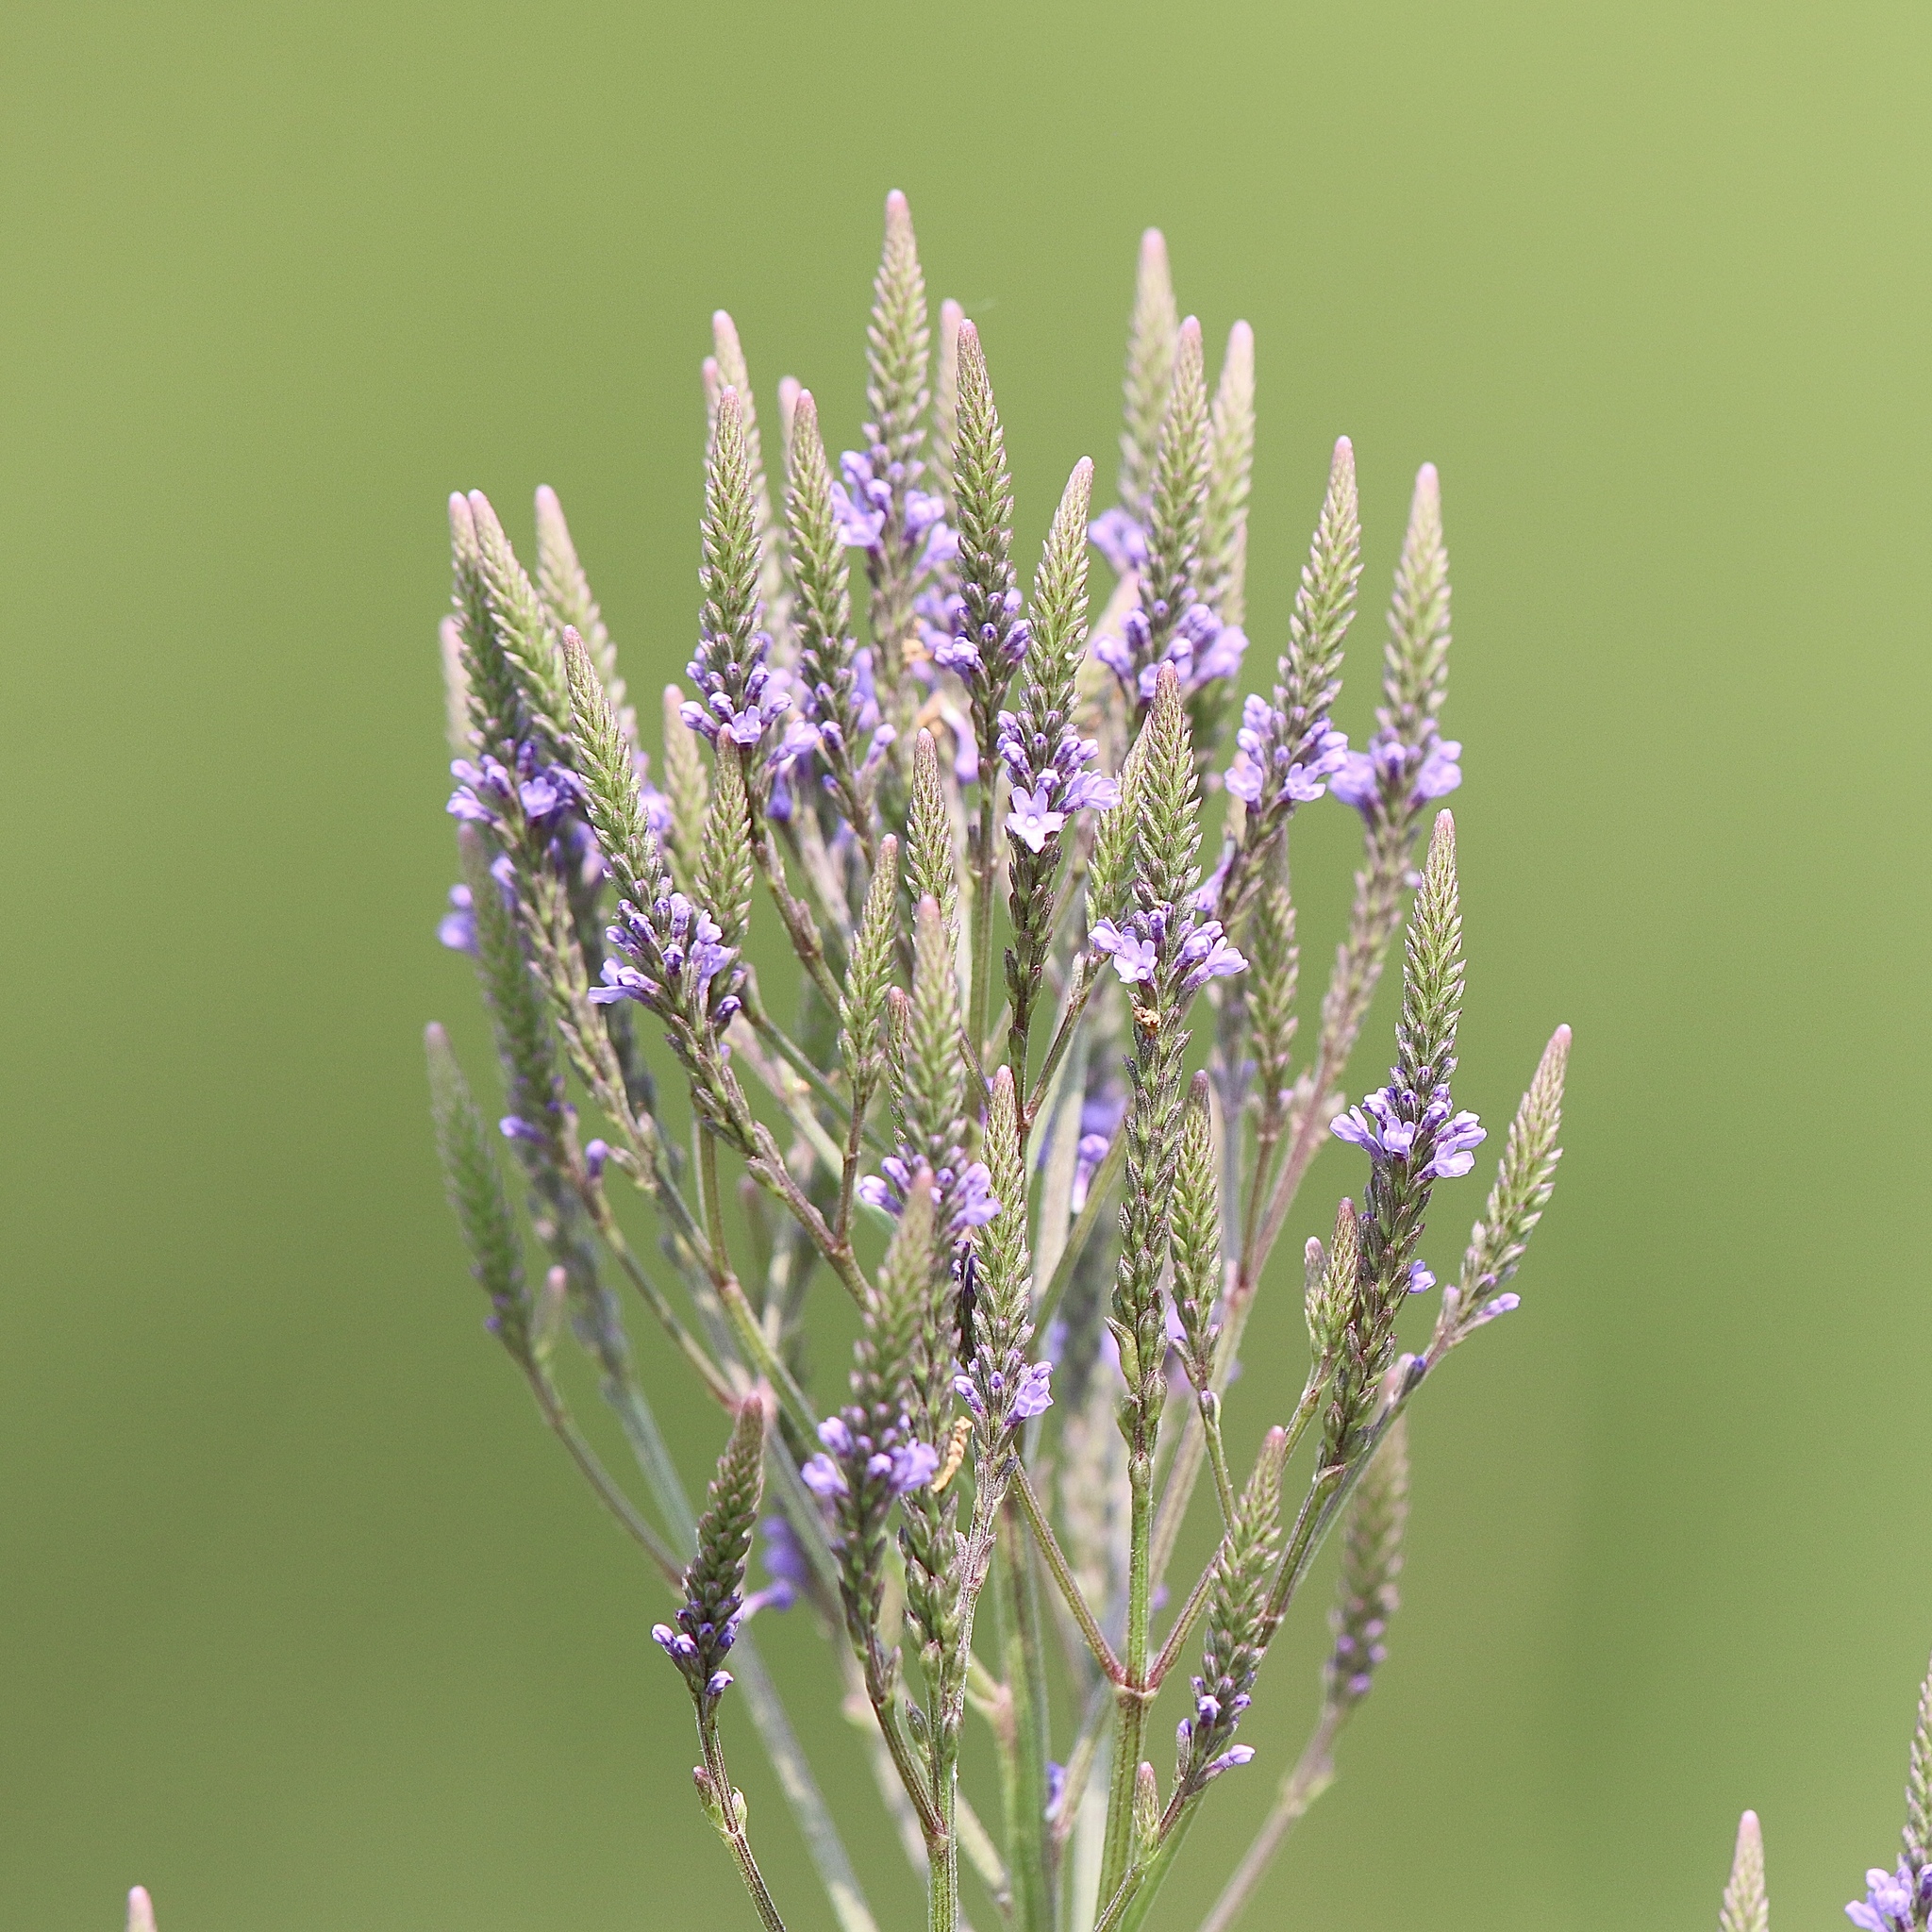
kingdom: Plantae
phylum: Tracheophyta
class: Magnoliopsida
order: Lamiales
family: Verbenaceae
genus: Verbena
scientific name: Verbena hastata
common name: American blue vervain
